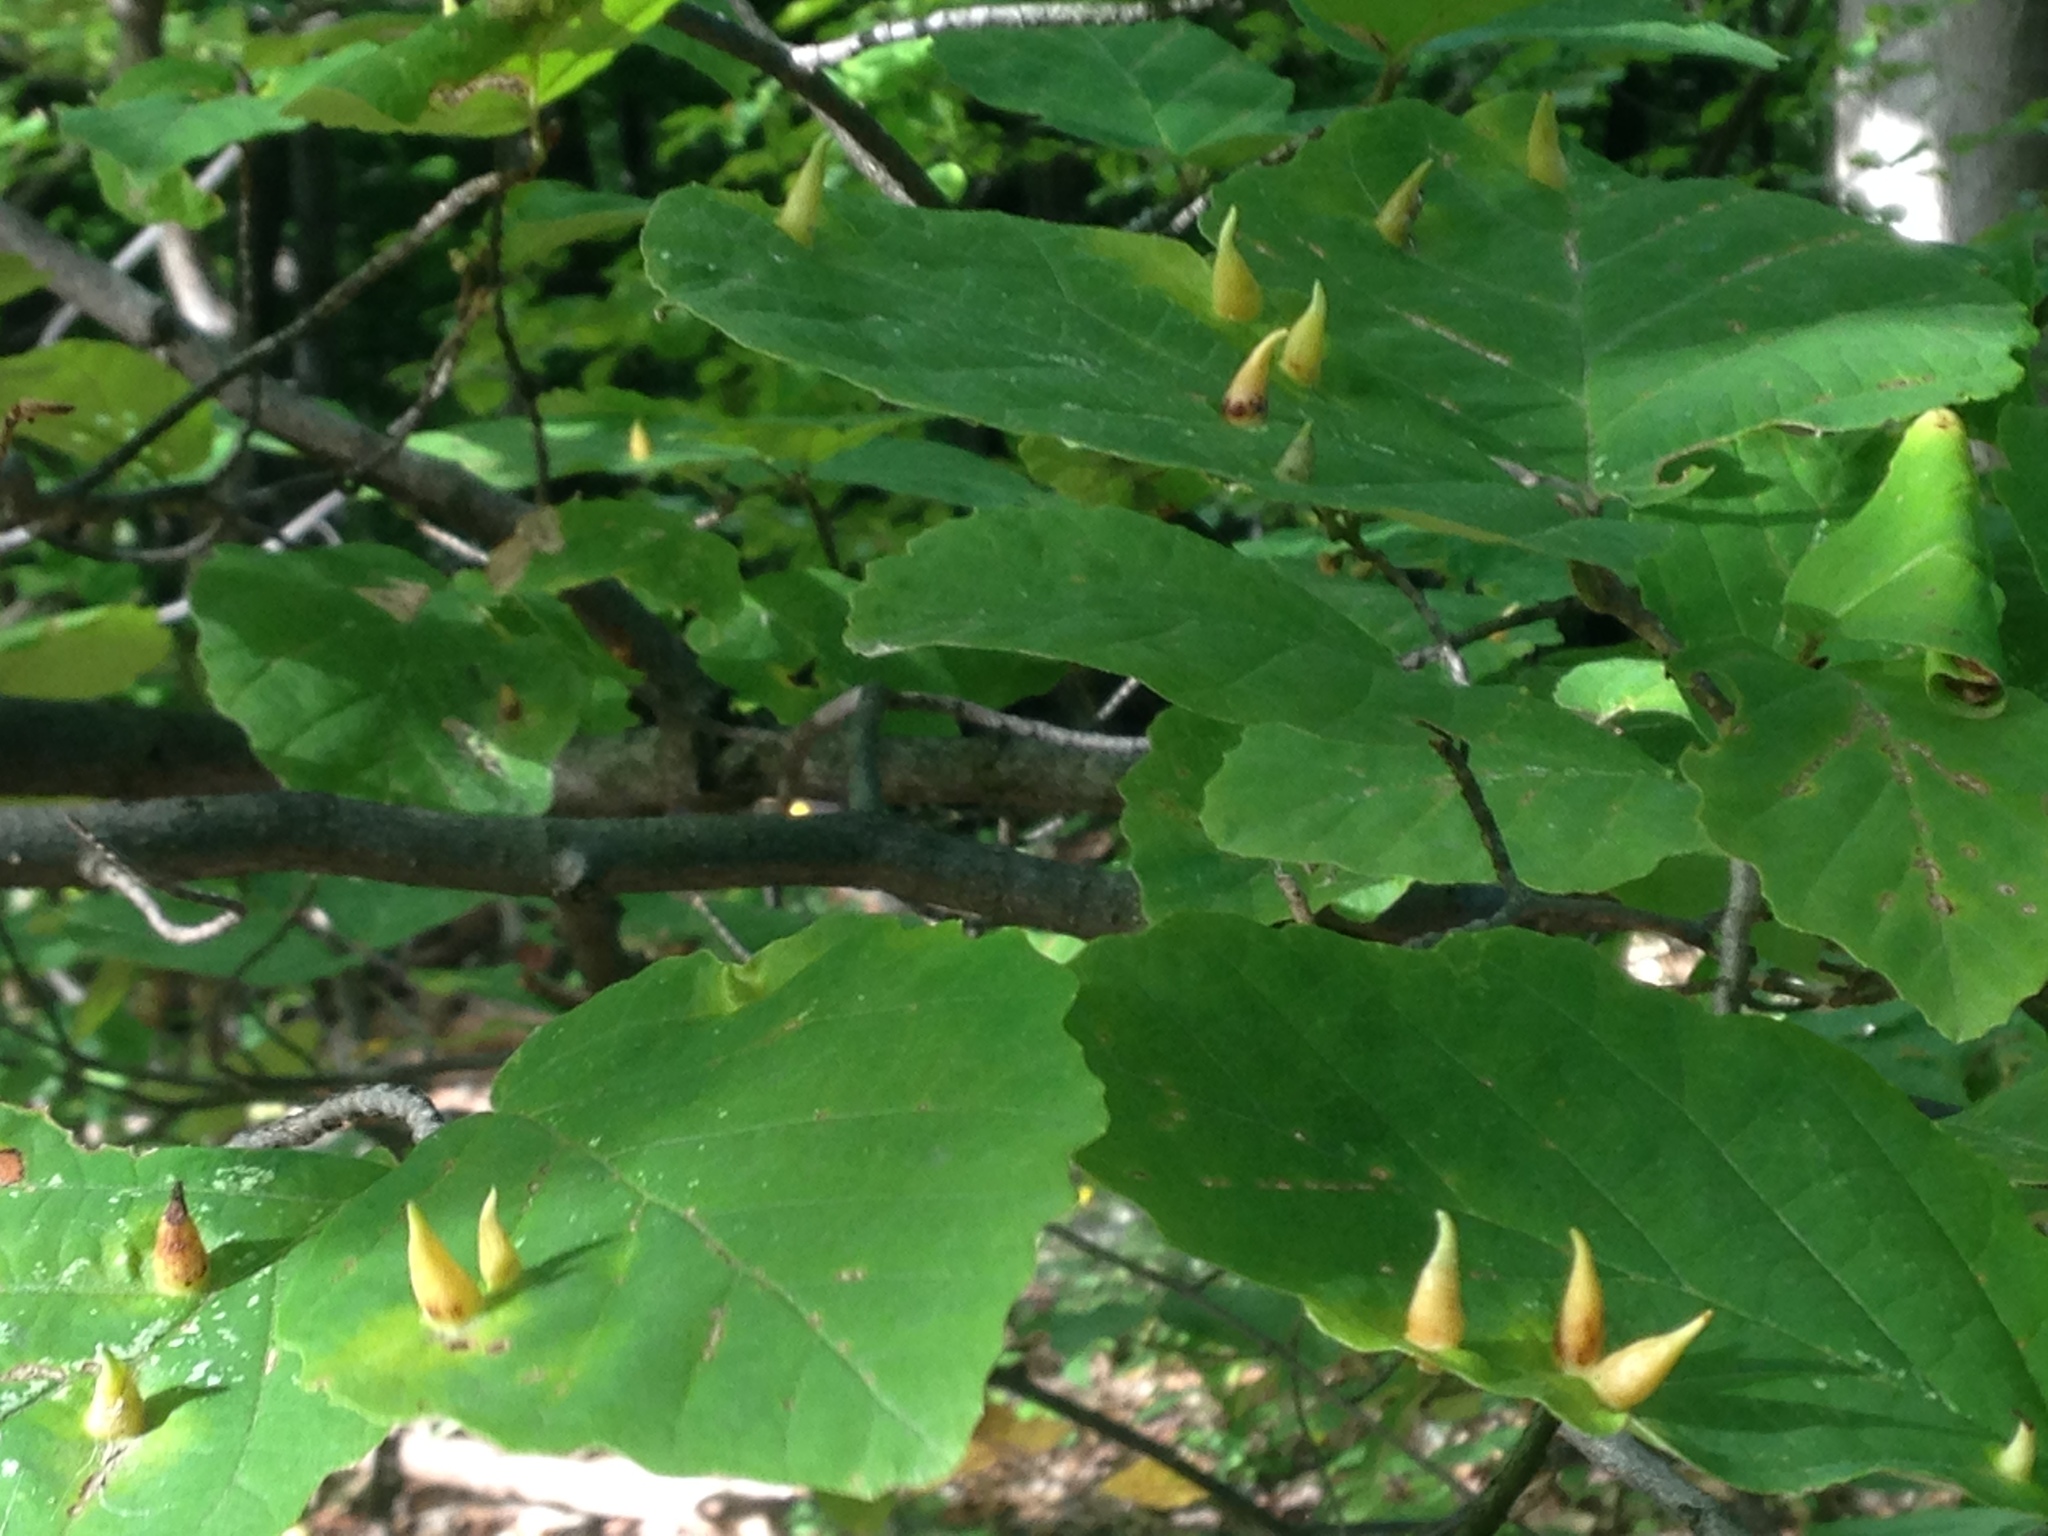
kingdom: Animalia
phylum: Arthropoda
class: Insecta
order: Hemiptera
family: Aphididae
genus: Hormaphis
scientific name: Hormaphis hamamelidis
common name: Witch-hazel cone gall aphid
